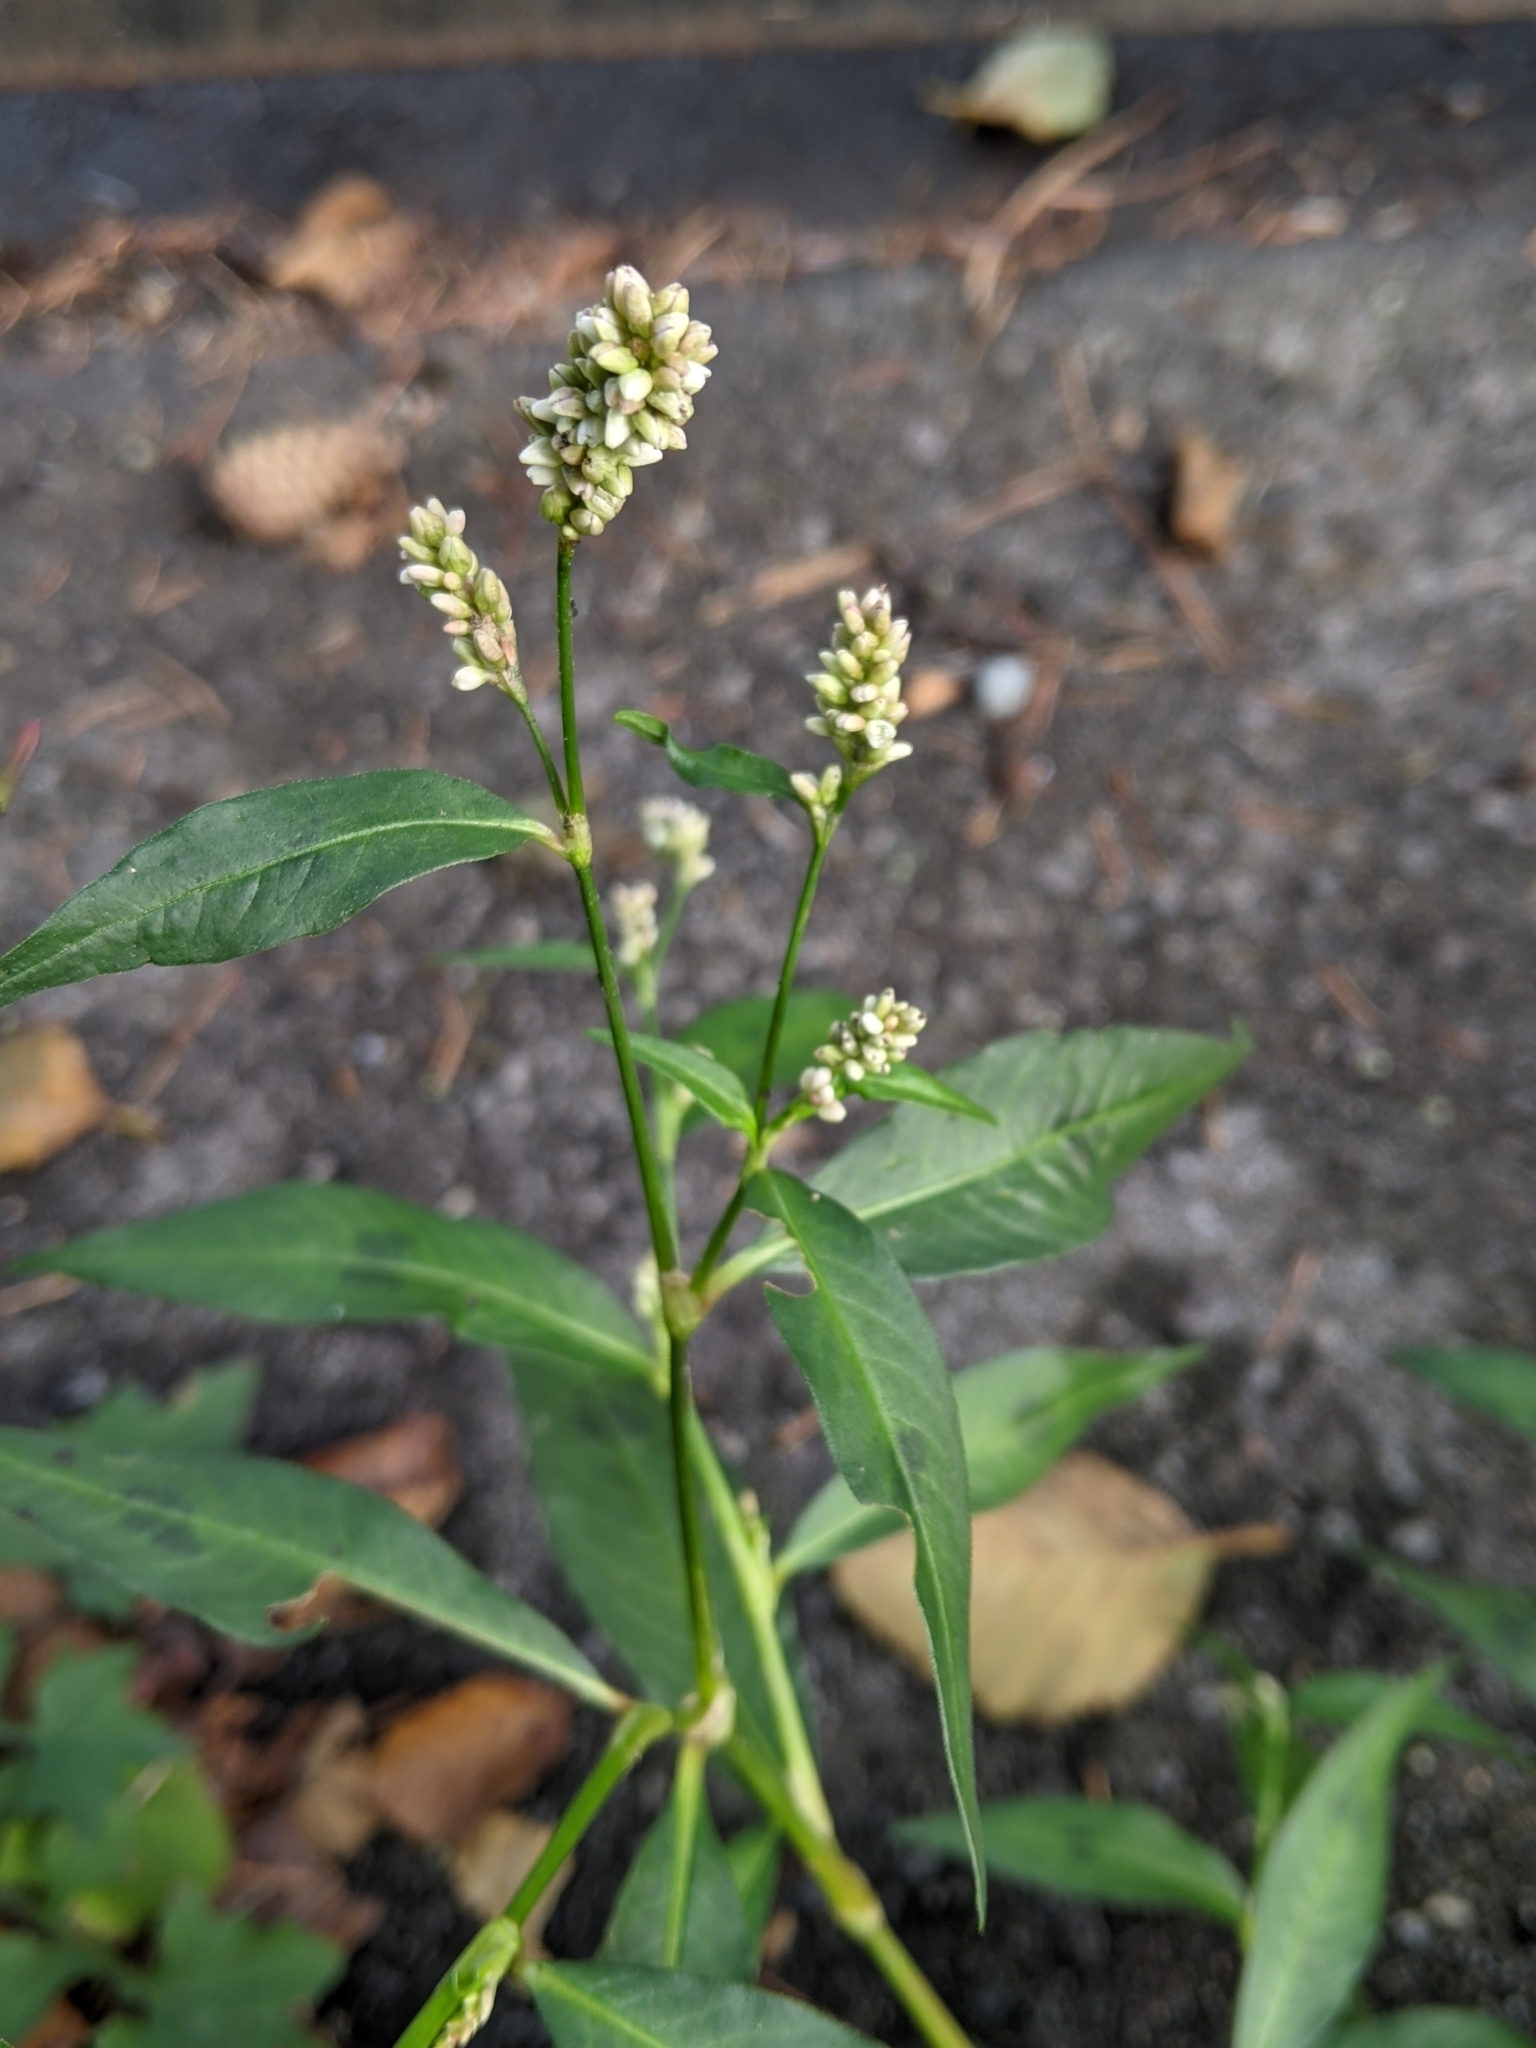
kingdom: Plantae
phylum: Tracheophyta
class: Magnoliopsida
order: Caryophyllales
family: Polygonaceae
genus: Persicaria
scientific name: Persicaria maculosa
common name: Redshank
